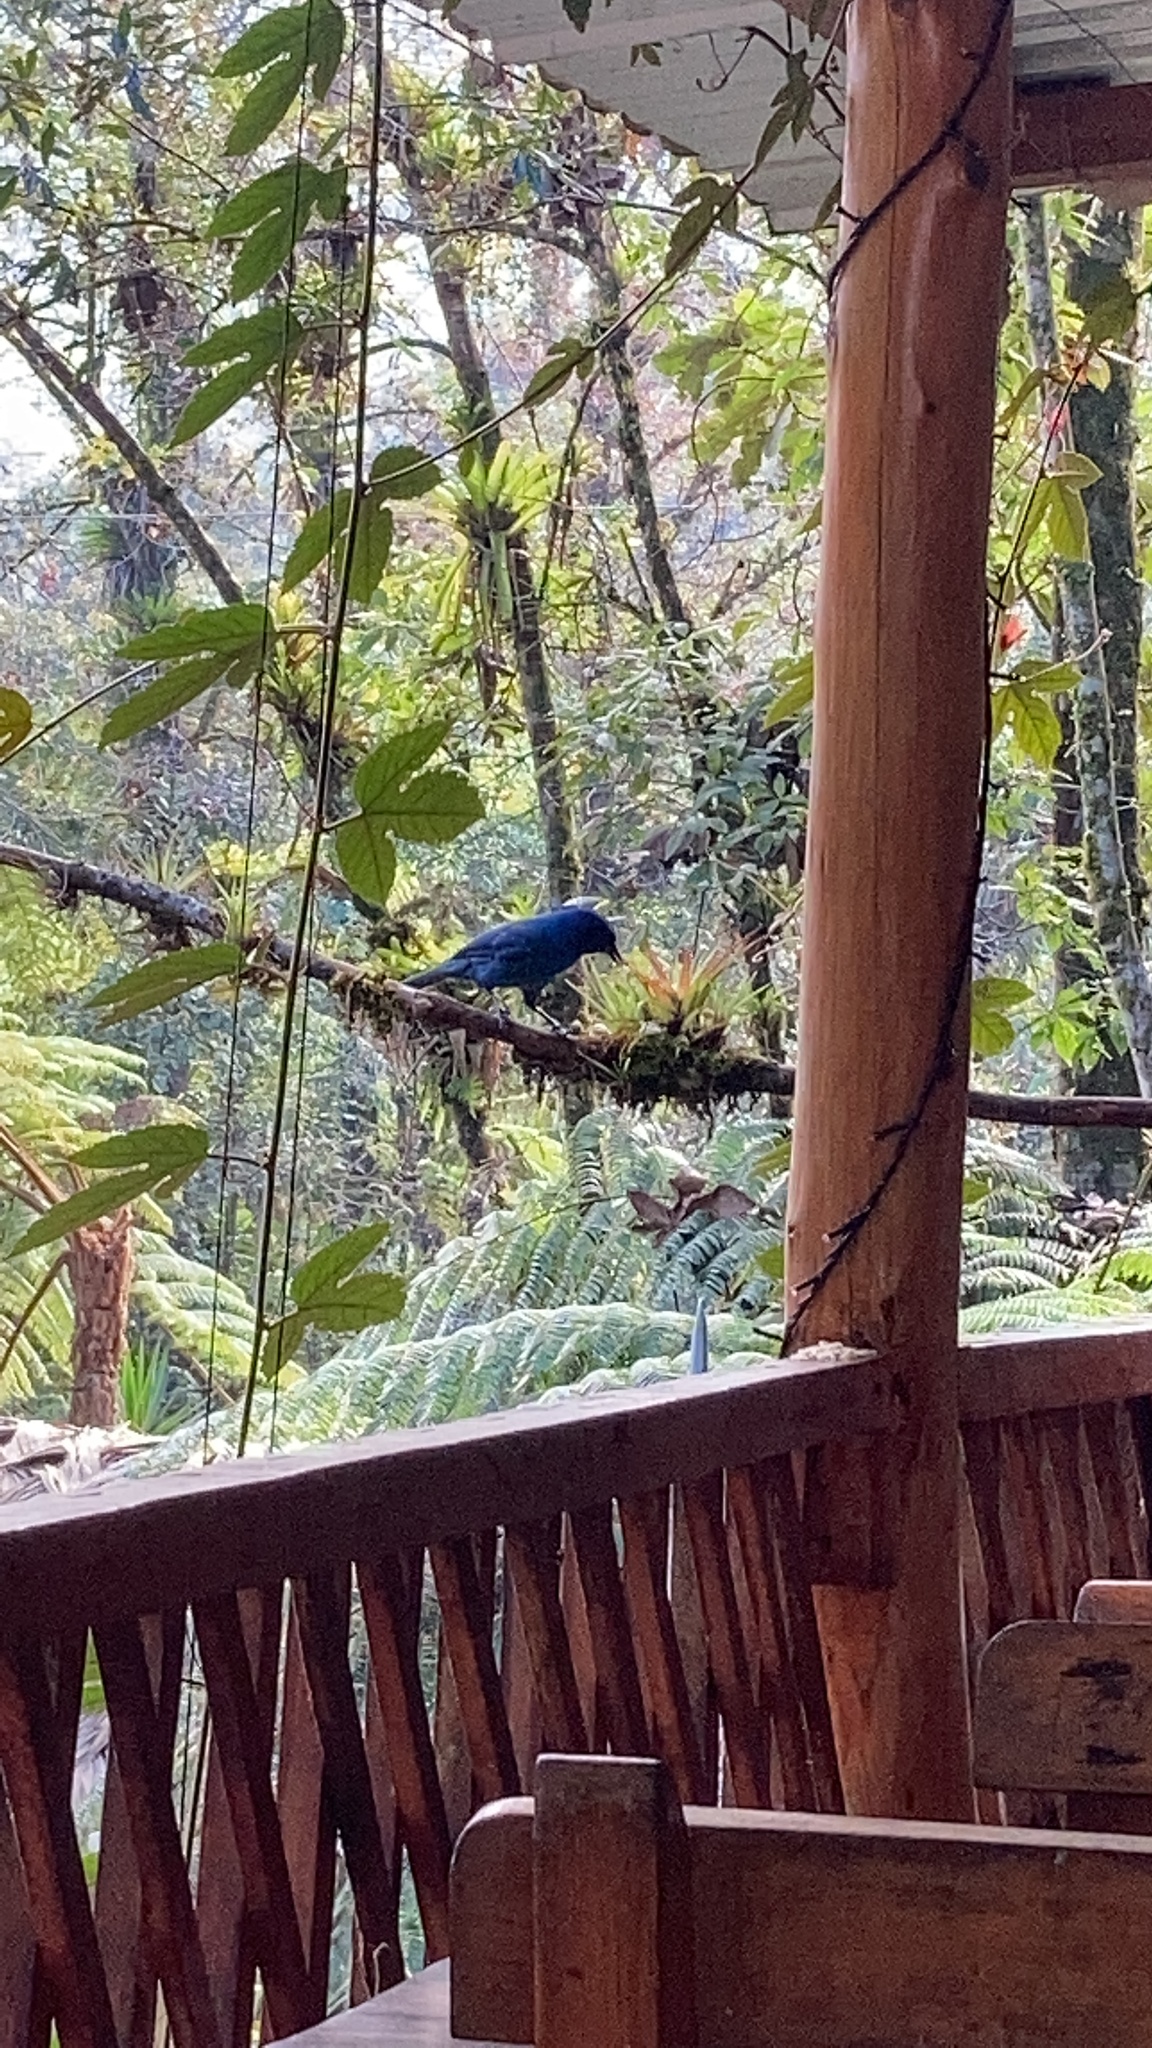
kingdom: Animalia
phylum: Chordata
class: Aves
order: Passeriformes
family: Corvidae
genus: Aphelocoma
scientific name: Aphelocoma unicolor
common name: Unicolored jay
